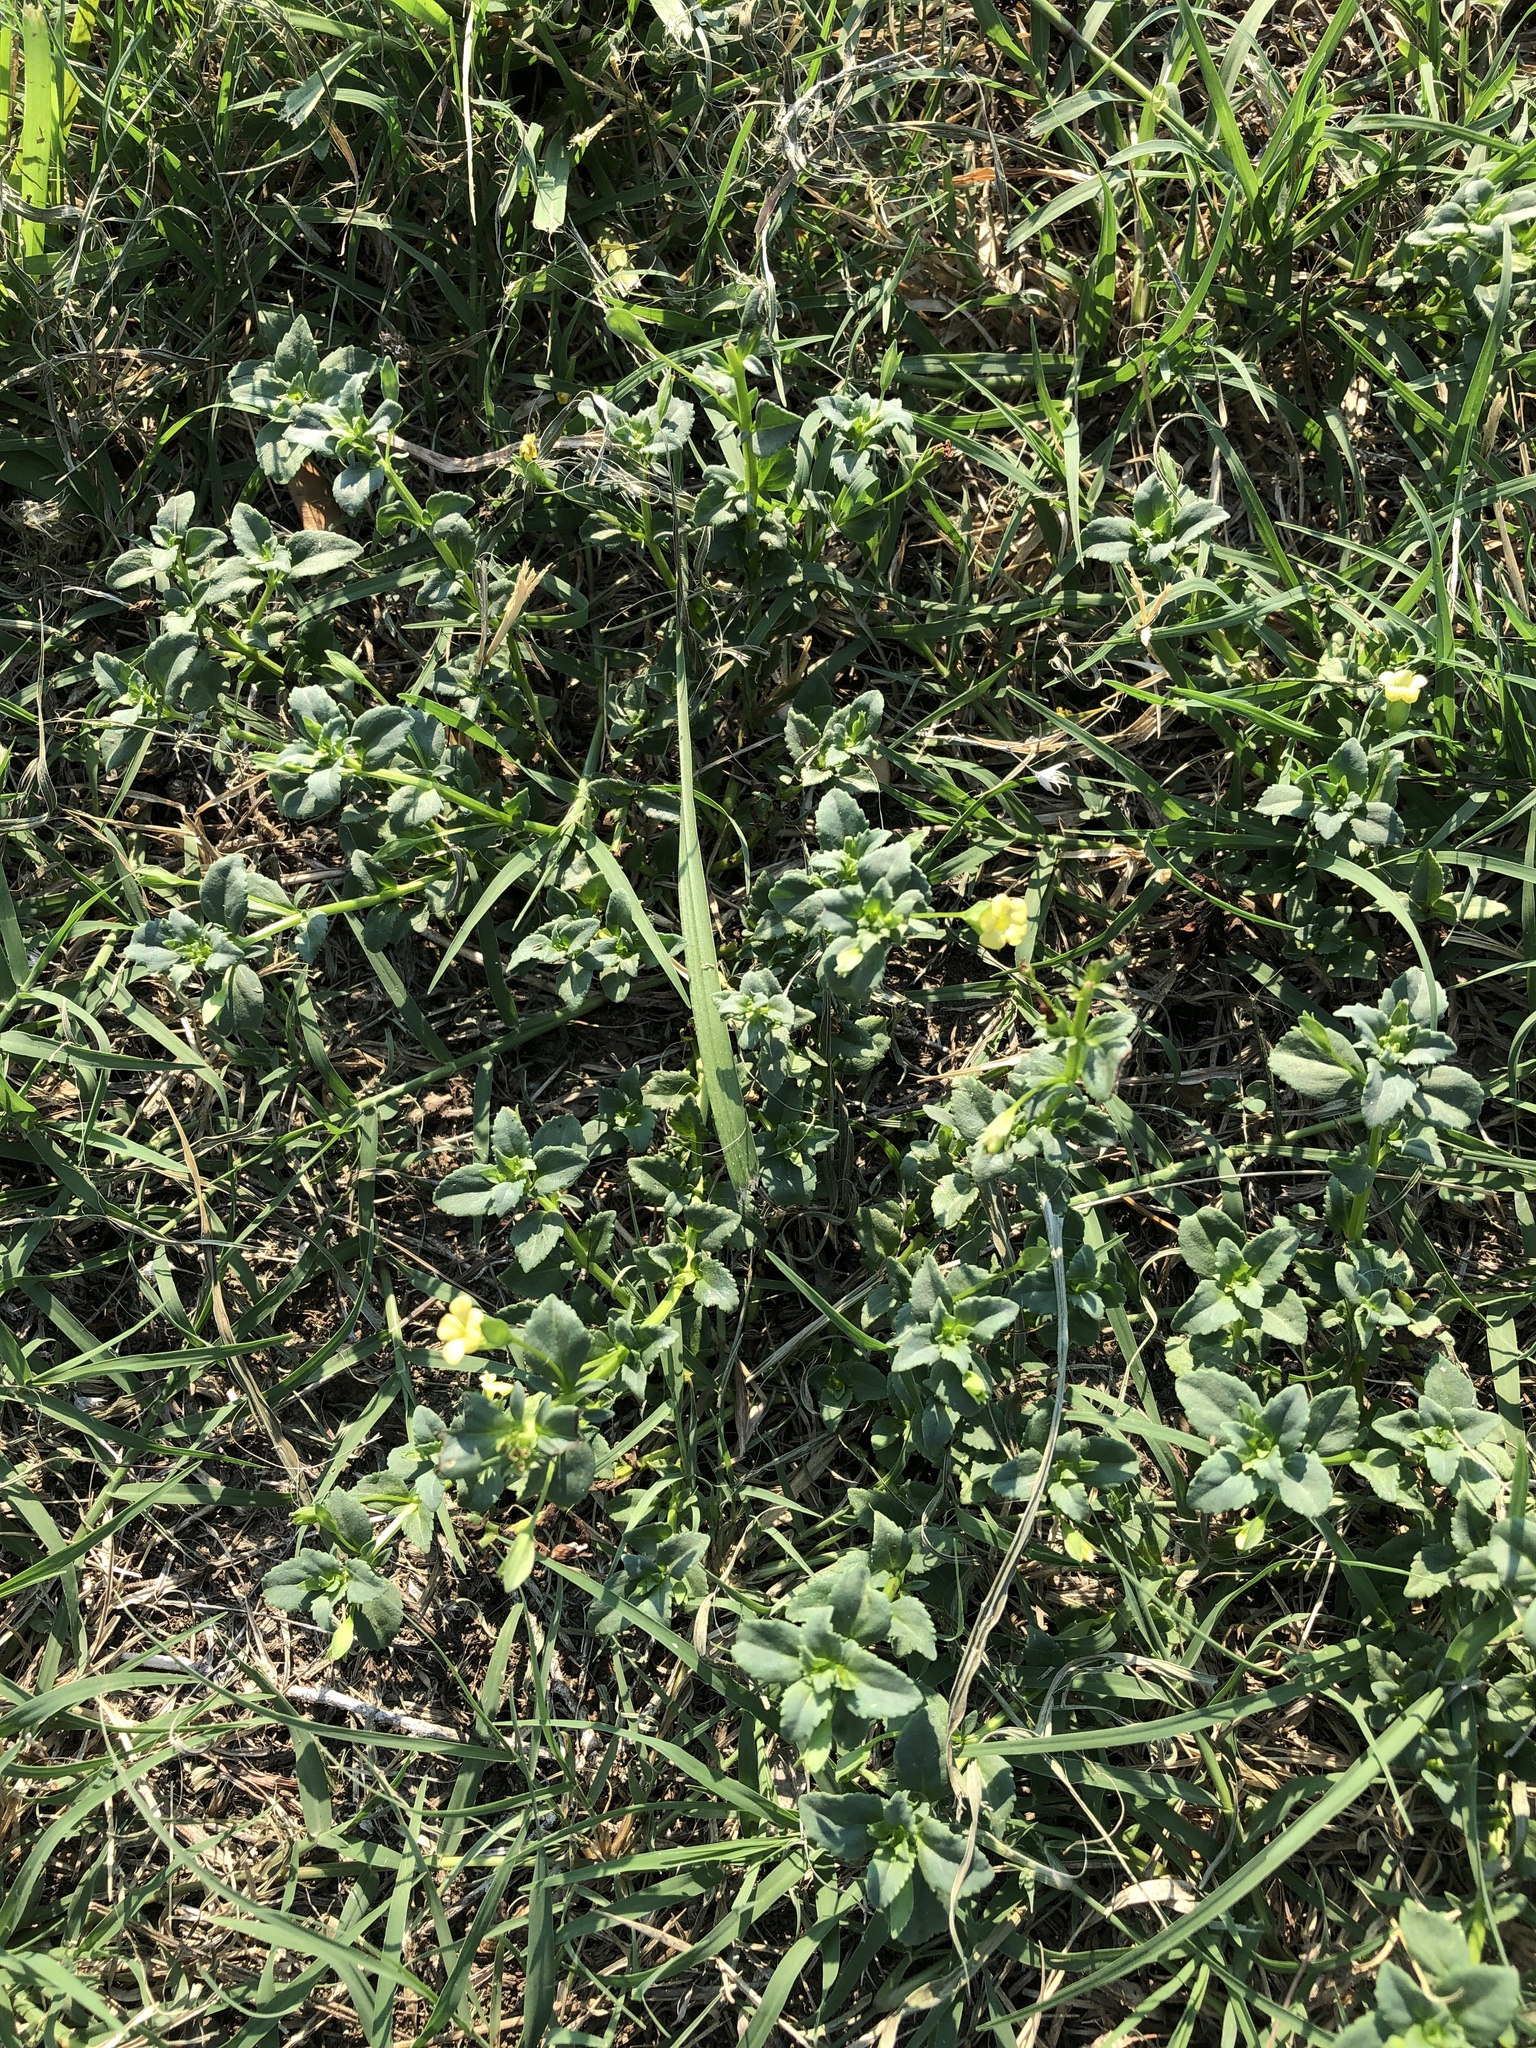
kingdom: Plantae
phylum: Tracheophyta
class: Magnoliopsida
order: Lamiales
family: Plantaginaceae
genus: Mecardonia
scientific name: Mecardonia procumbens
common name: Baby jump-up
